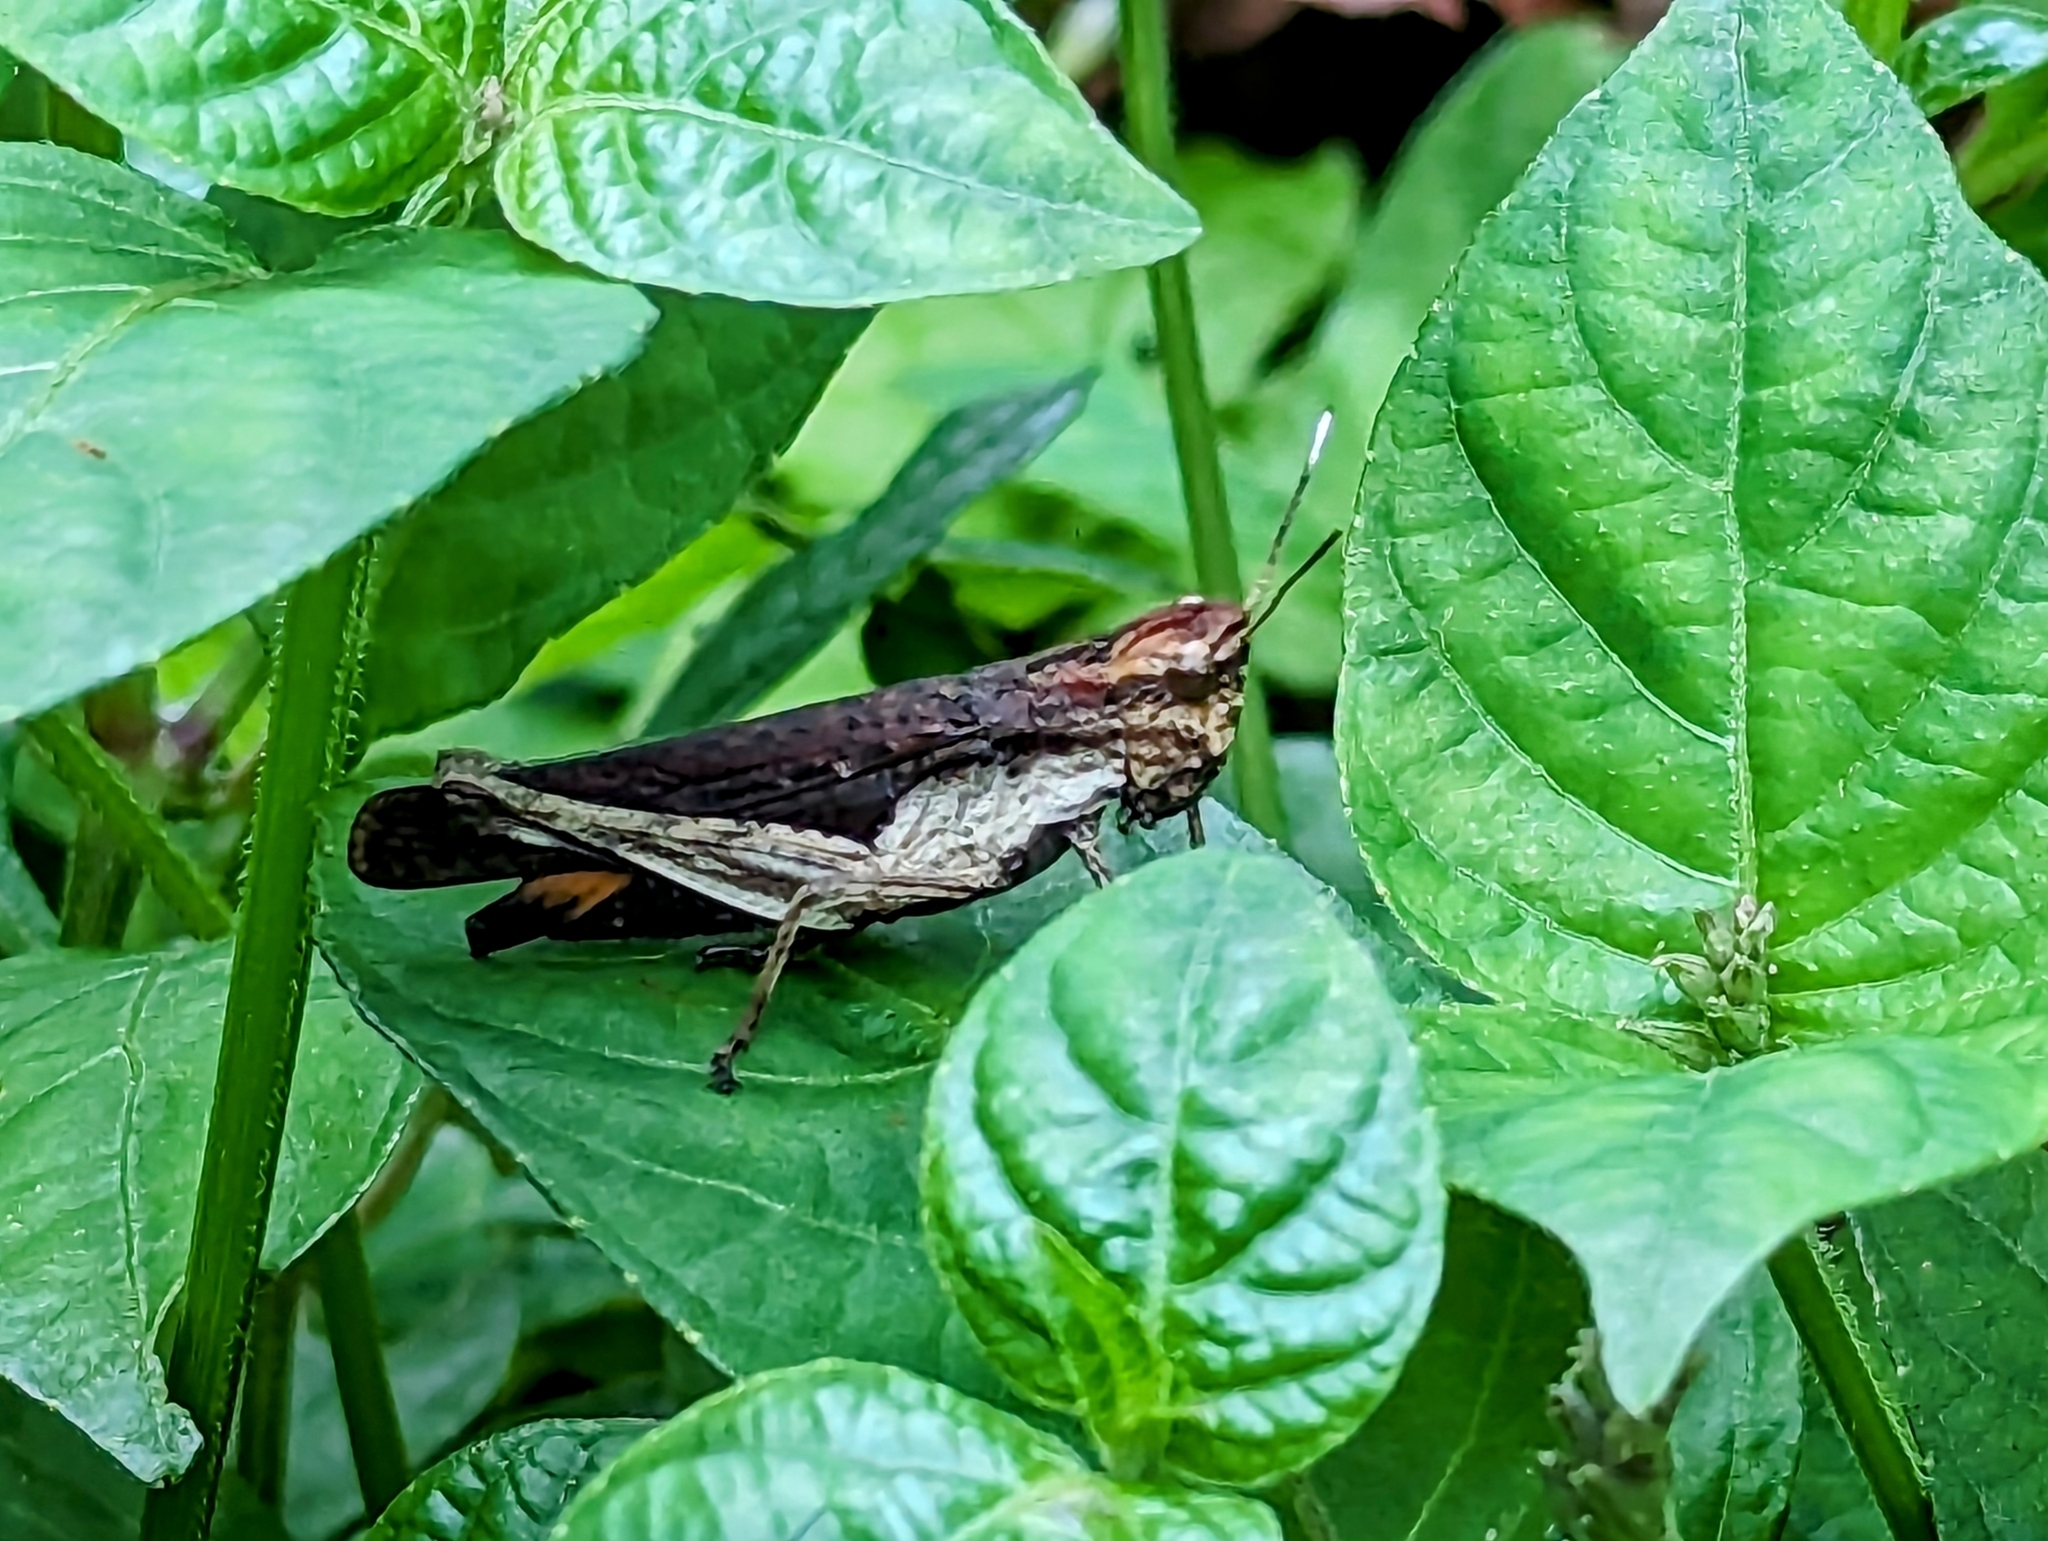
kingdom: Animalia
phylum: Arthropoda
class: Insecta
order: Orthoptera
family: Acrididae
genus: Peruvia
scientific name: Peruvia nigromarginata
